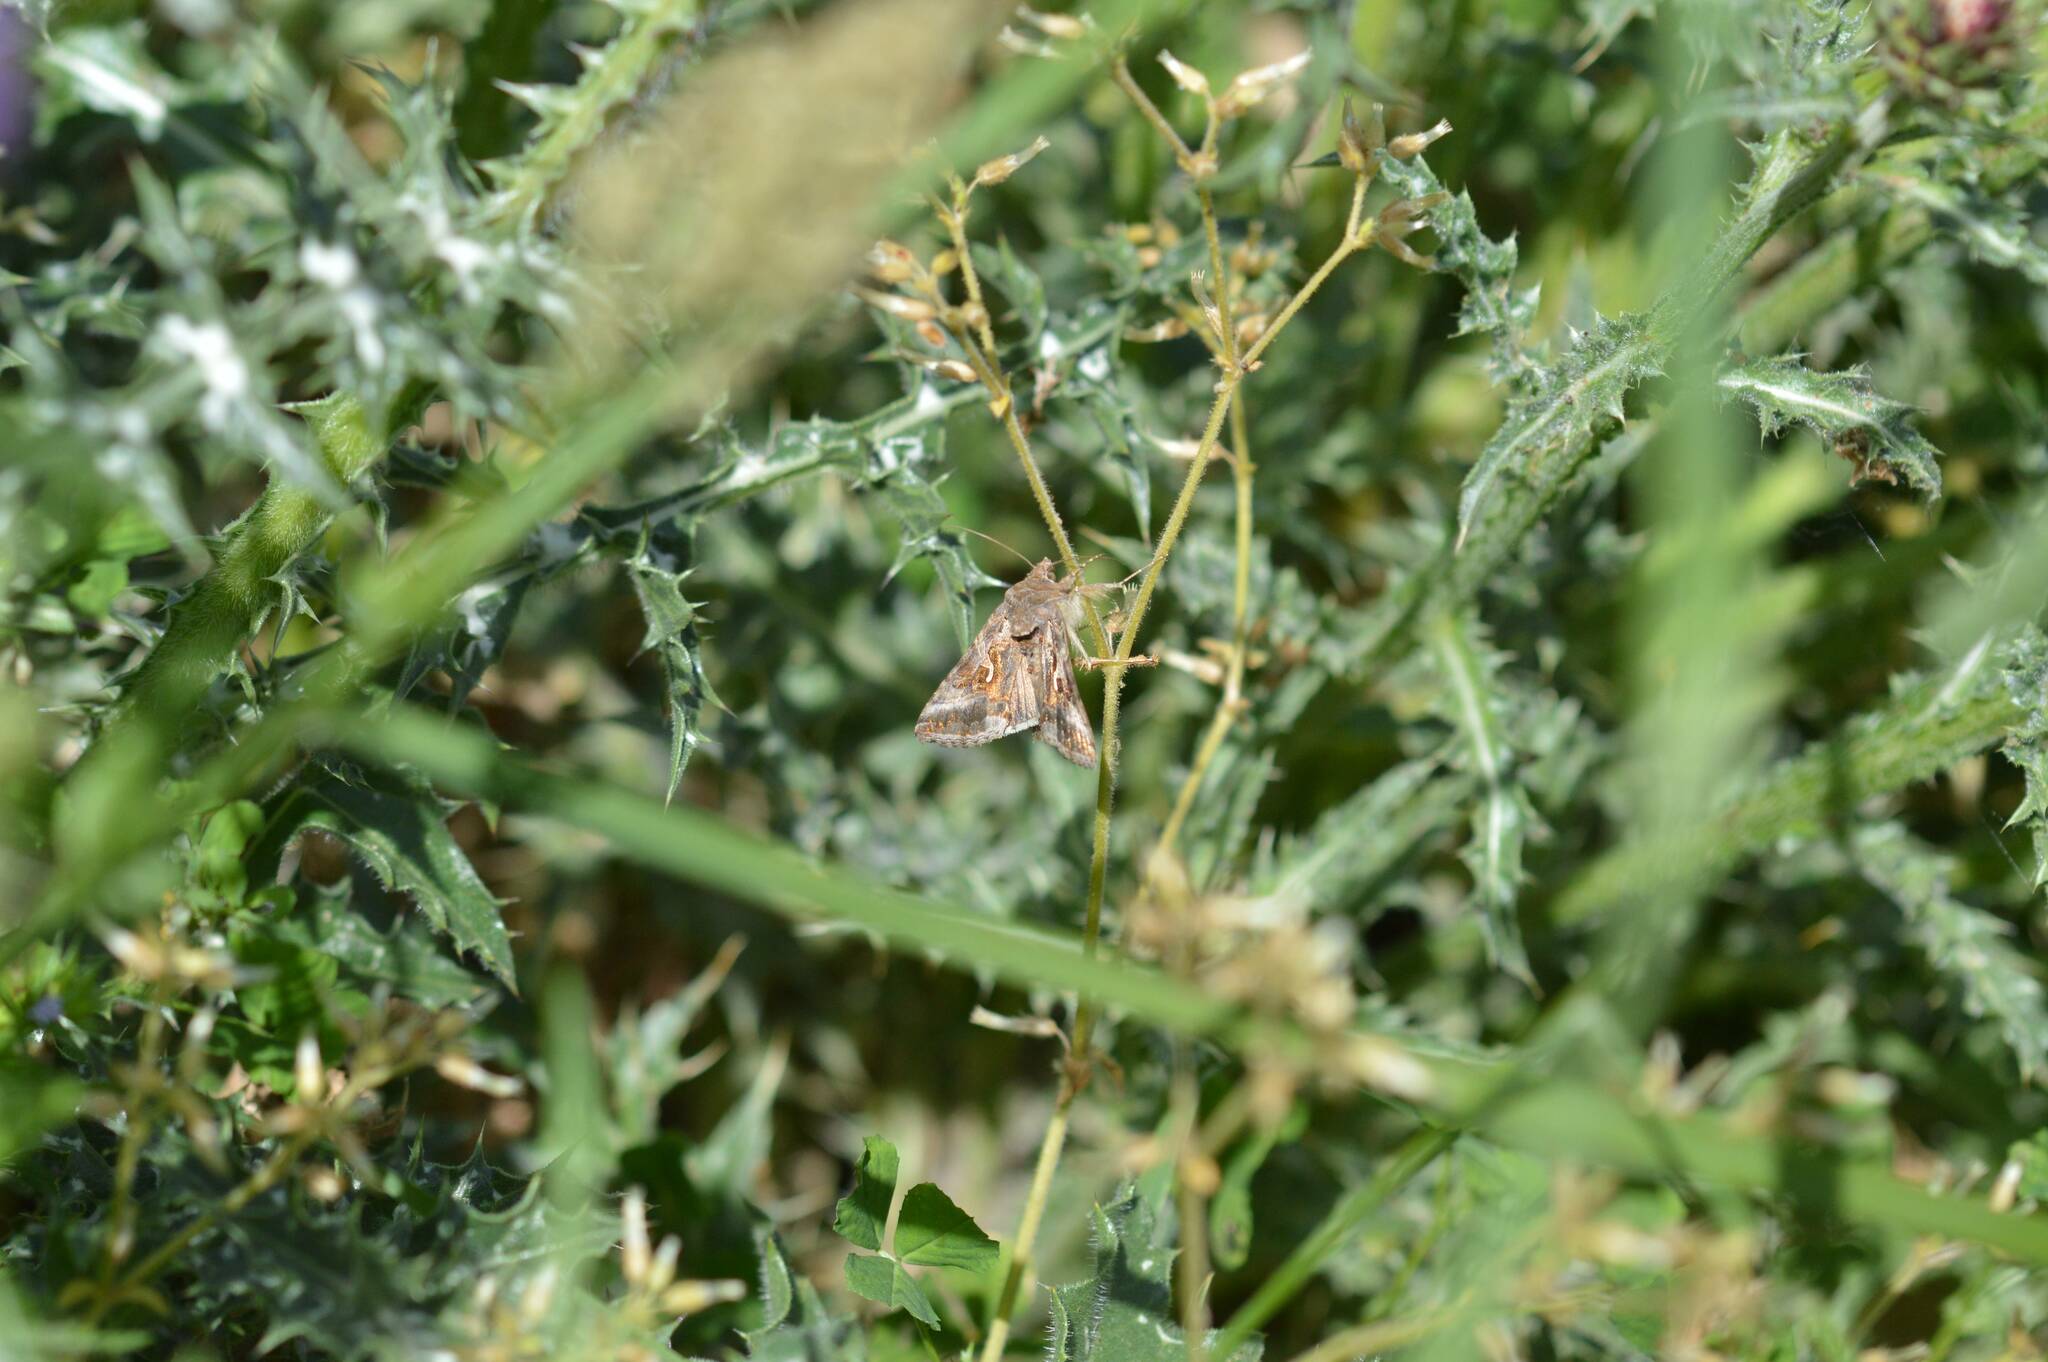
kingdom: Animalia
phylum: Arthropoda
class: Insecta
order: Lepidoptera
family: Noctuidae
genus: Autographa
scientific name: Autographa gamma
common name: Silver y
